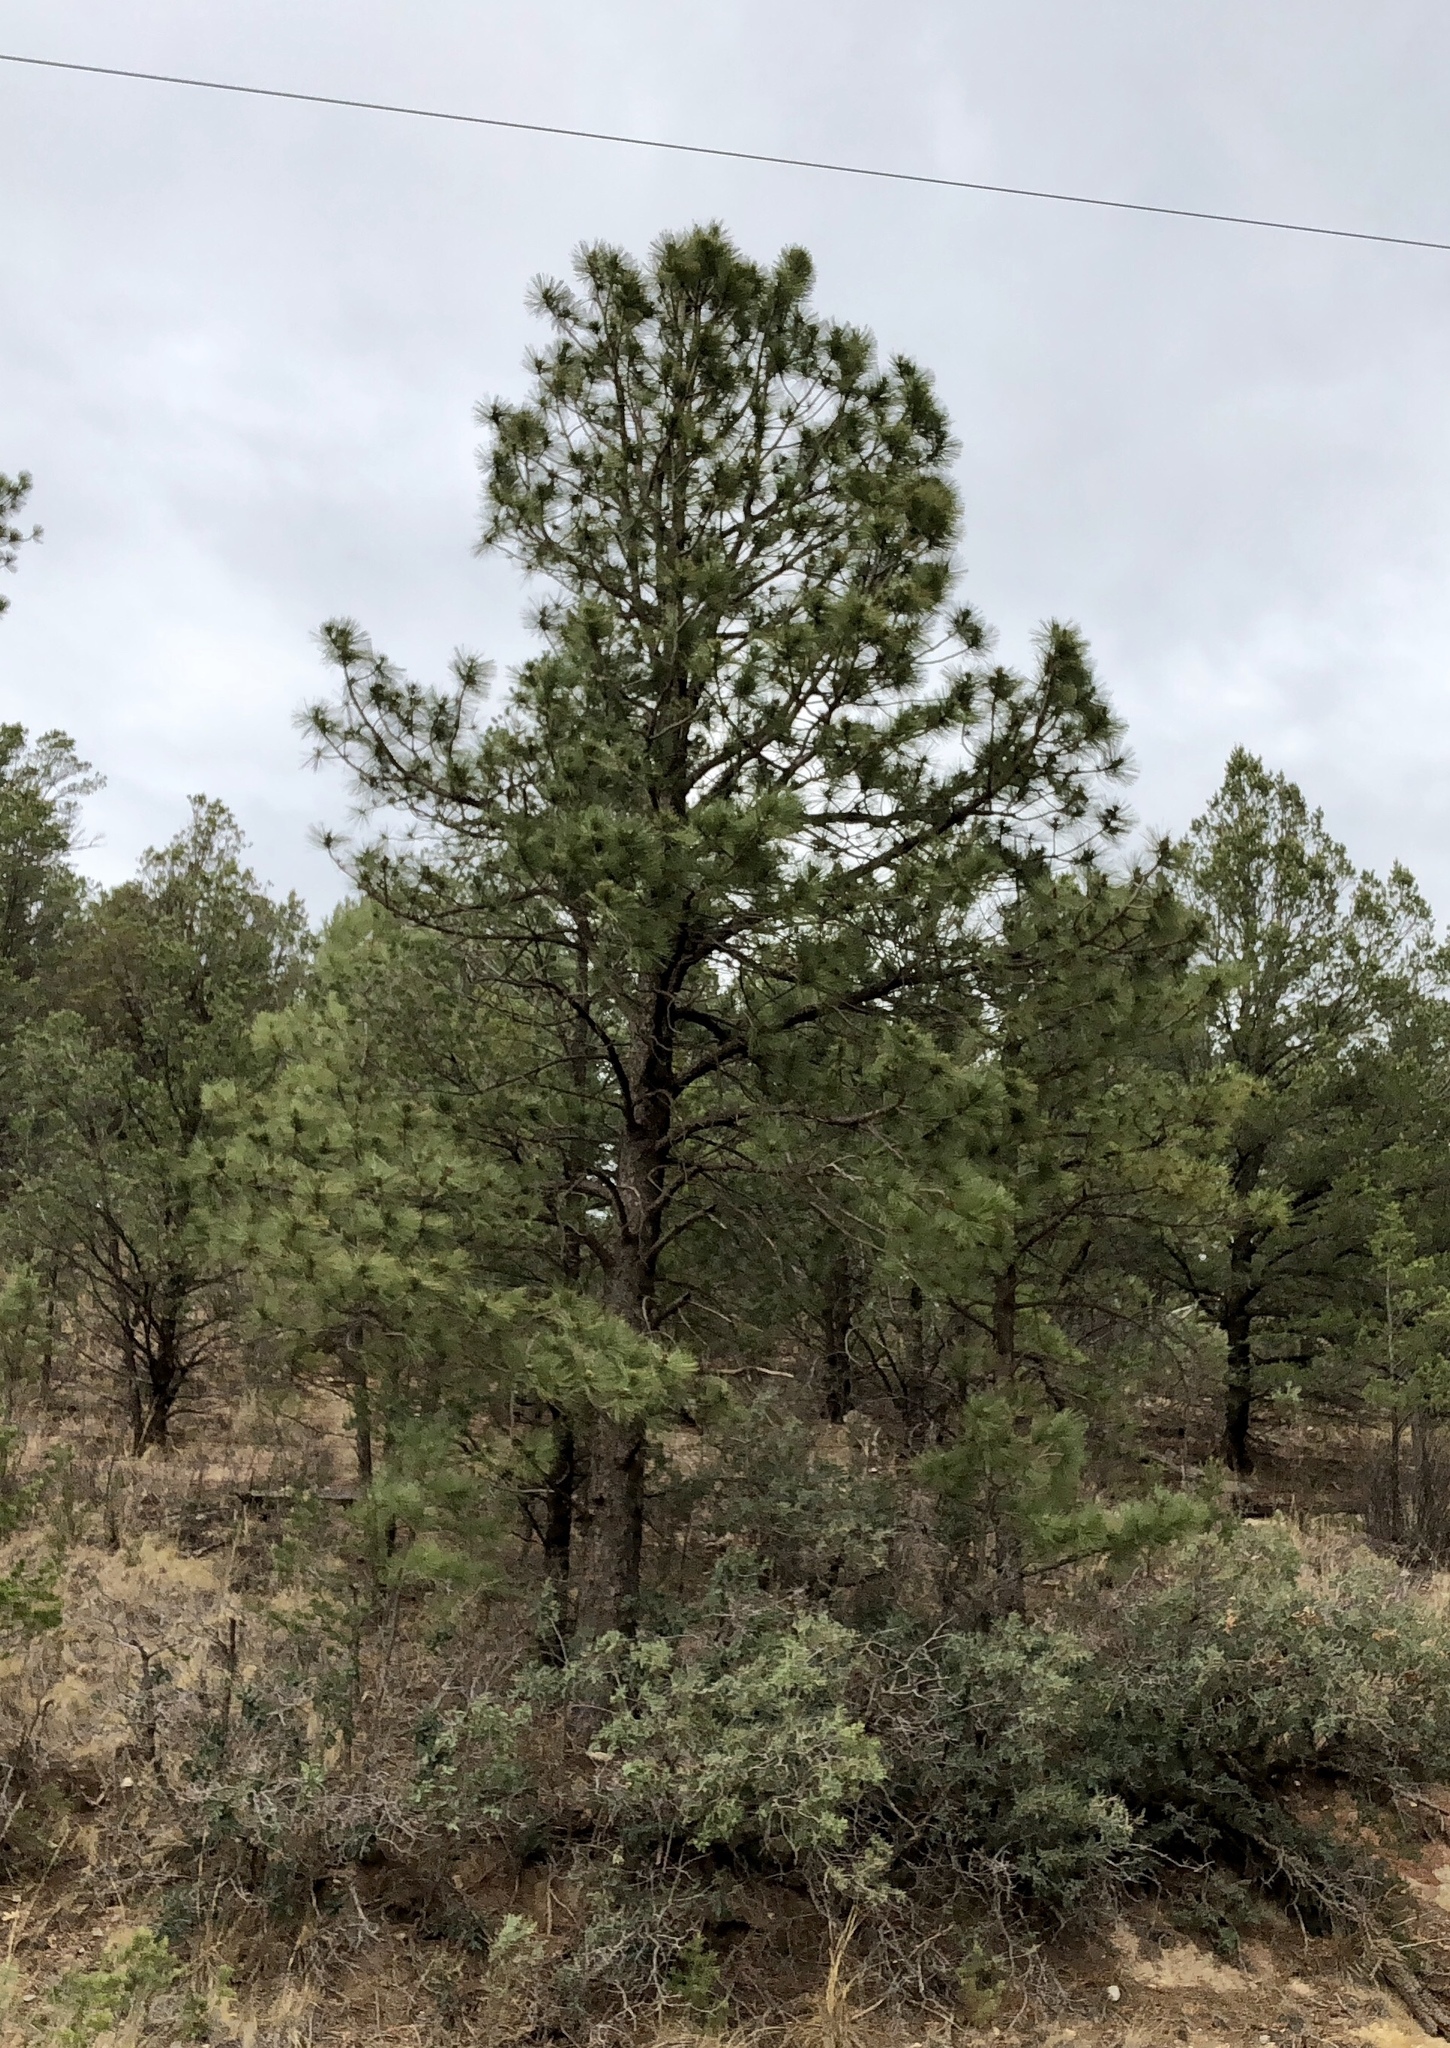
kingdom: Plantae
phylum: Tracheophyta
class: Pinopsida
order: Pinales
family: Pinaceae
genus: Pinus
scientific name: Pinus ponderosa
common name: Western yellow-pine
